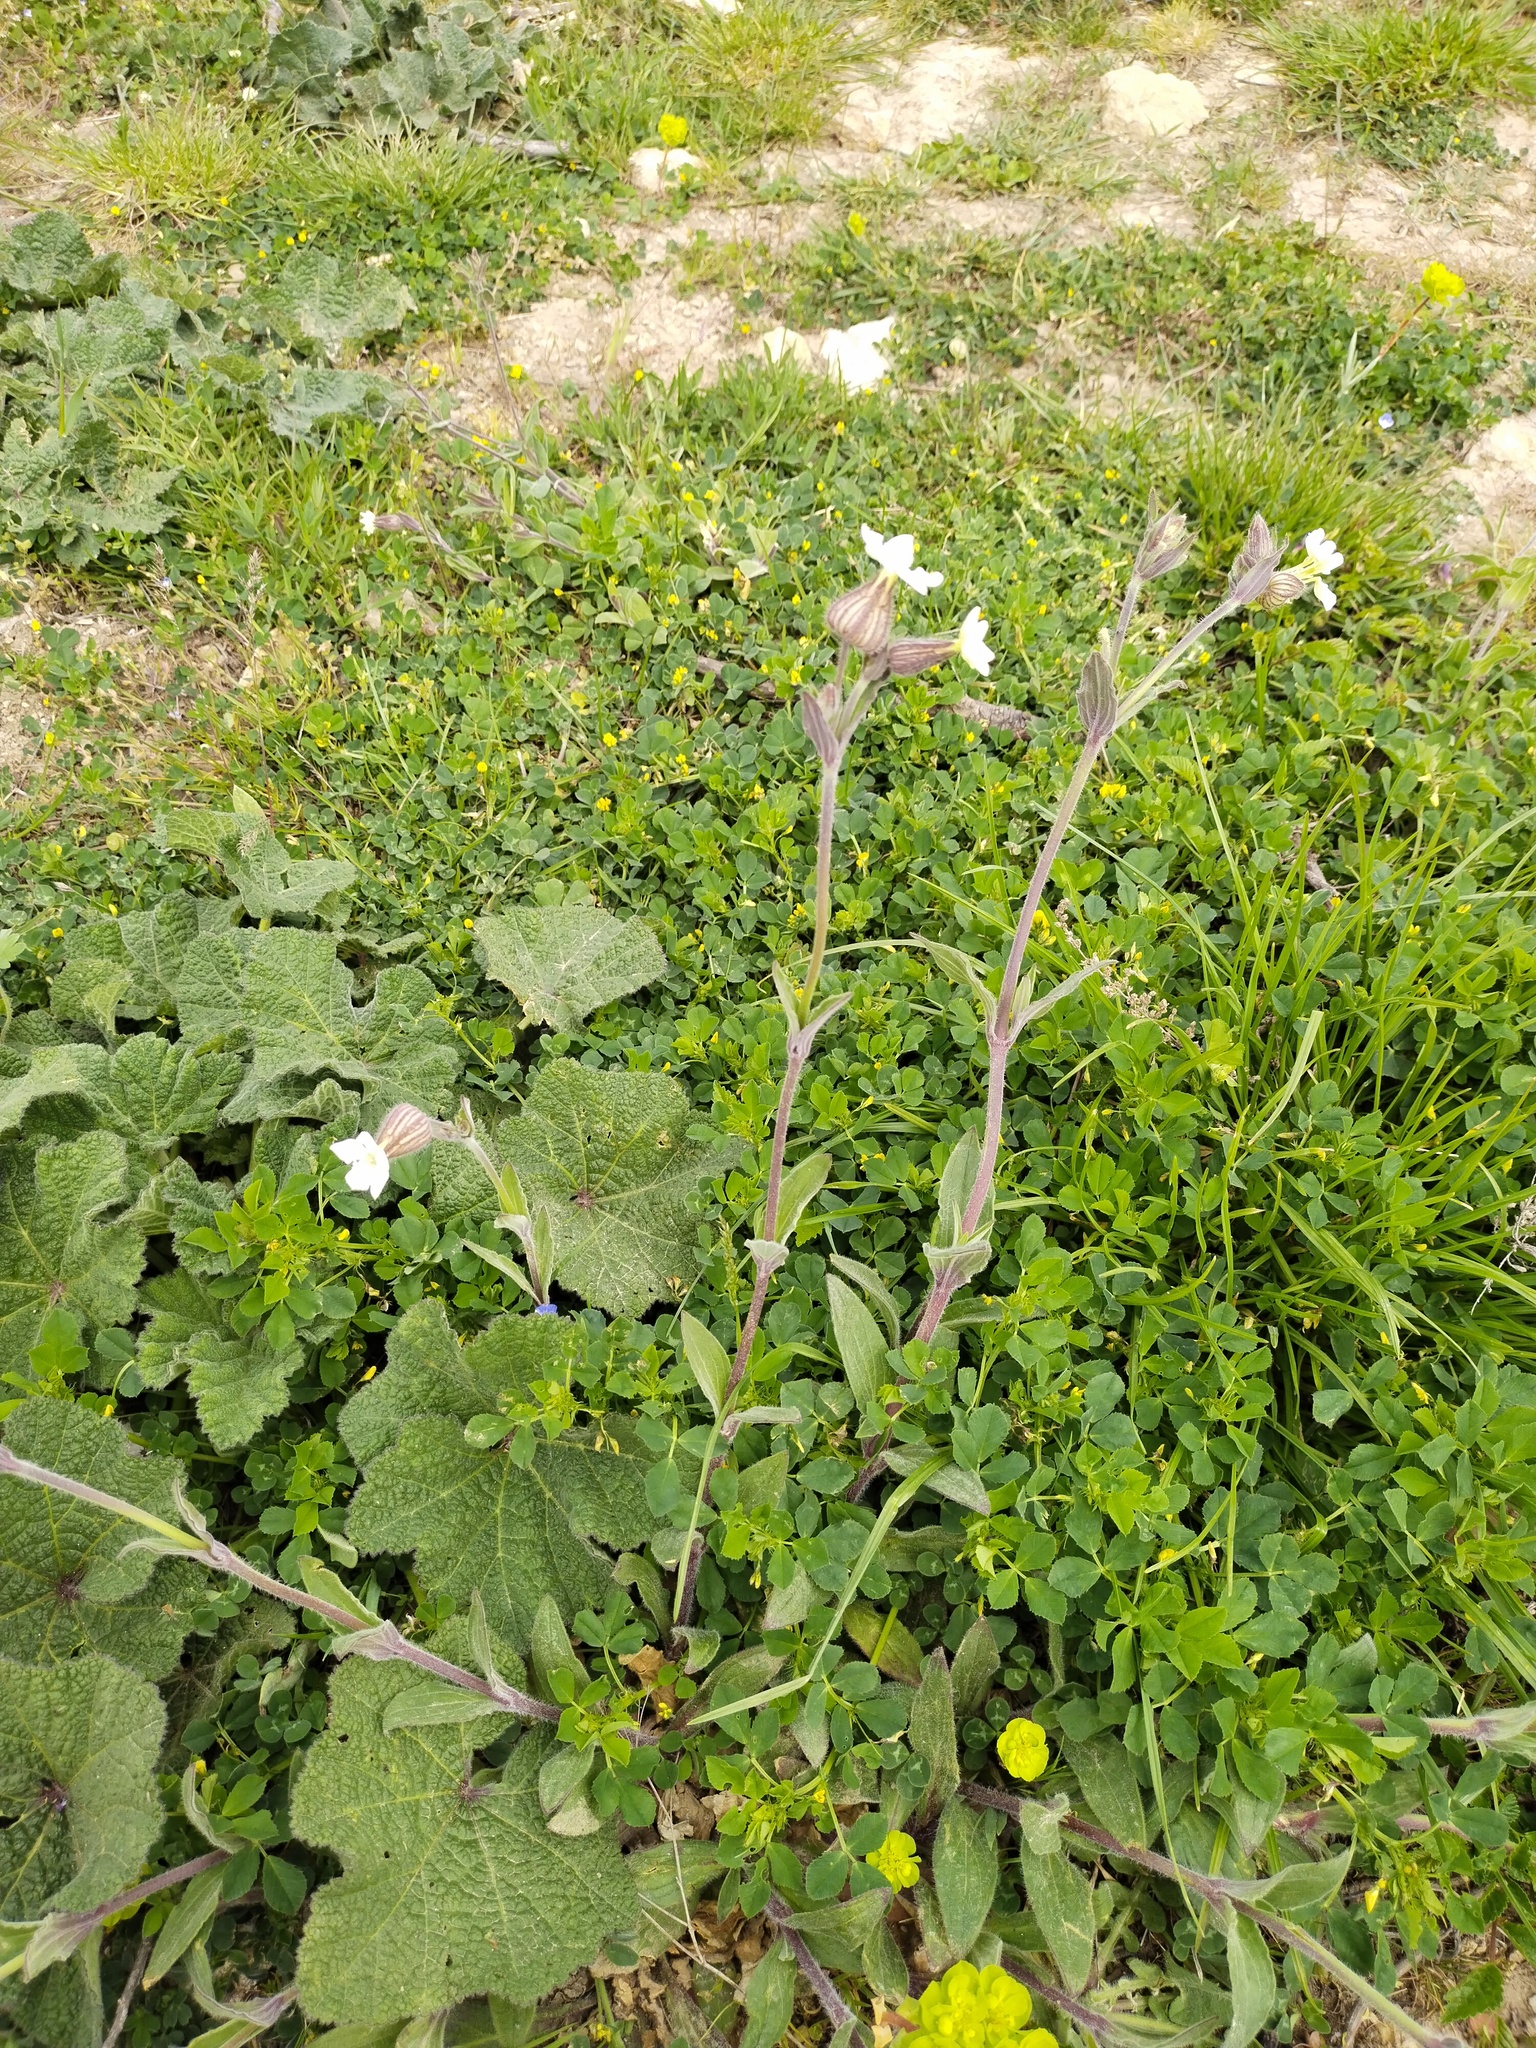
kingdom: Plantae
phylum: Tracheophyta
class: Magnoliopsida
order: Caryophyllales
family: Caryophyllaceae
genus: Silene
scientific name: Silene latifolia
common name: White campion
